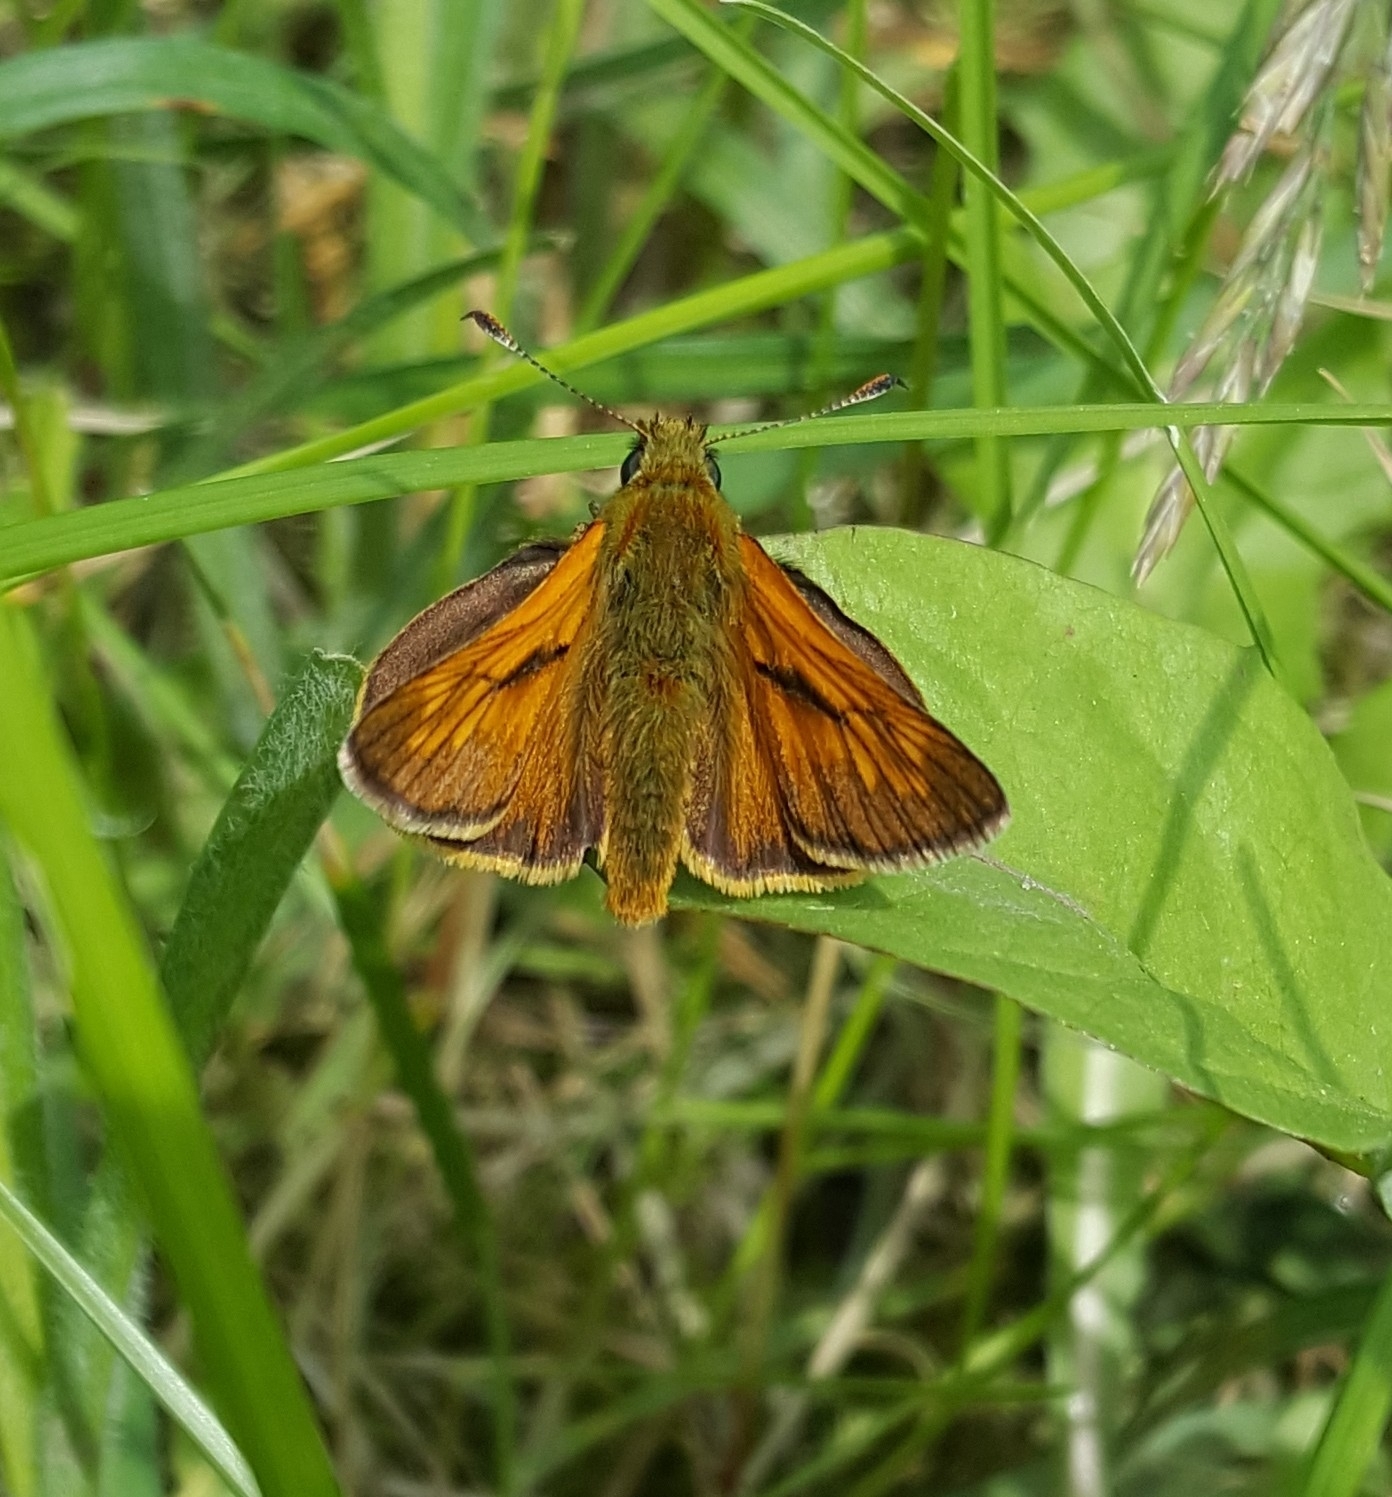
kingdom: Animalia
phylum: Arthropoda
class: Insecta
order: Lepidoptera
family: Hesperiidae
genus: Ochlodes
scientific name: Ochlodes venata
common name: Large skipper
